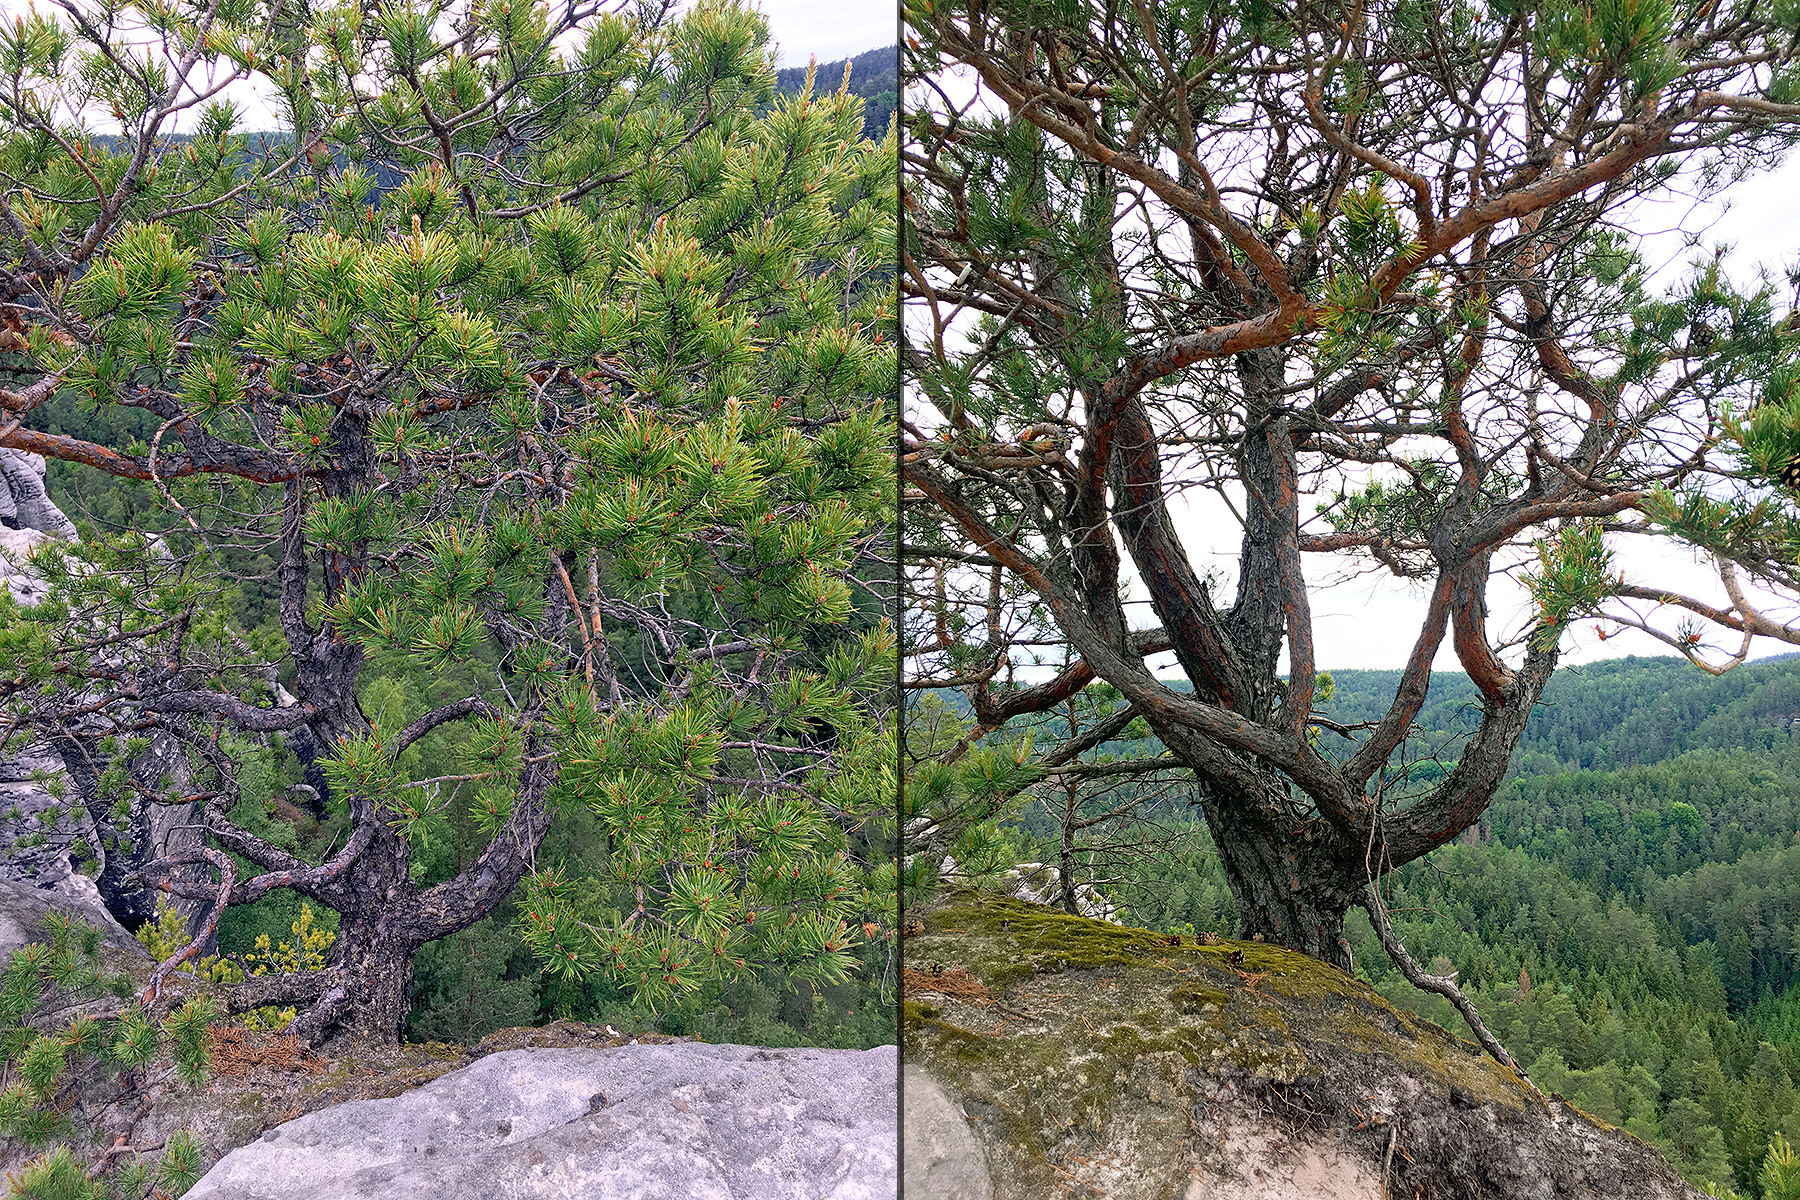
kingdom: Plantae
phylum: Tracheophyta
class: Pinopsida
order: Pinales
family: Pinaceae
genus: Pinus
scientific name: Pinus sylvestris
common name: Scots pine
